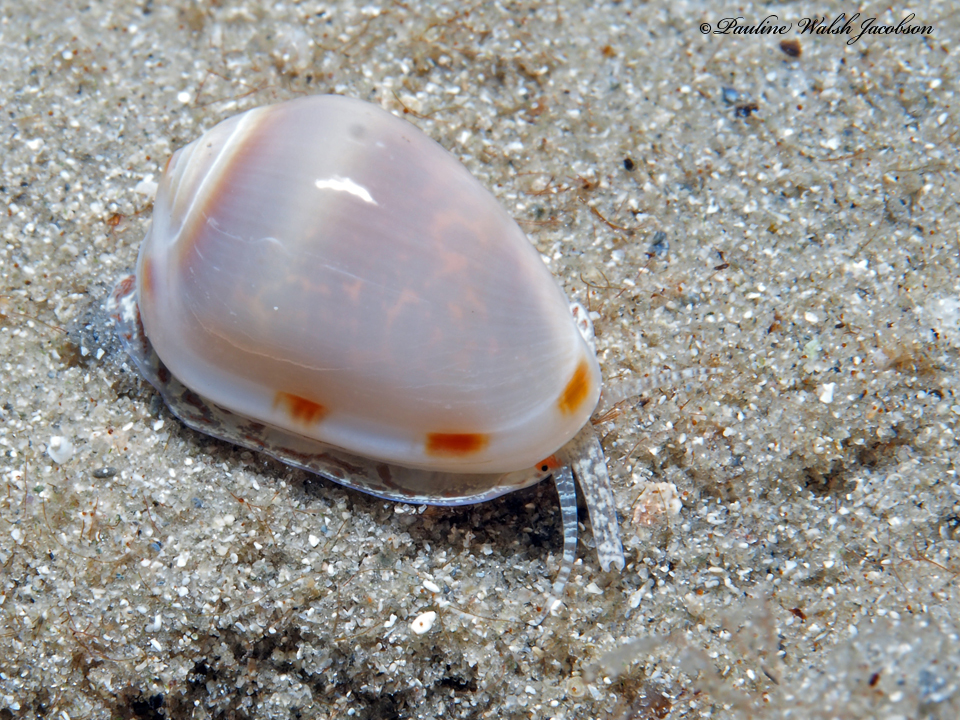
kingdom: Animalia
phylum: Mollusca
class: Gastropoda
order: Neogastropoda
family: Marginellidae
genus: Prunum
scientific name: Prunum apicinum
